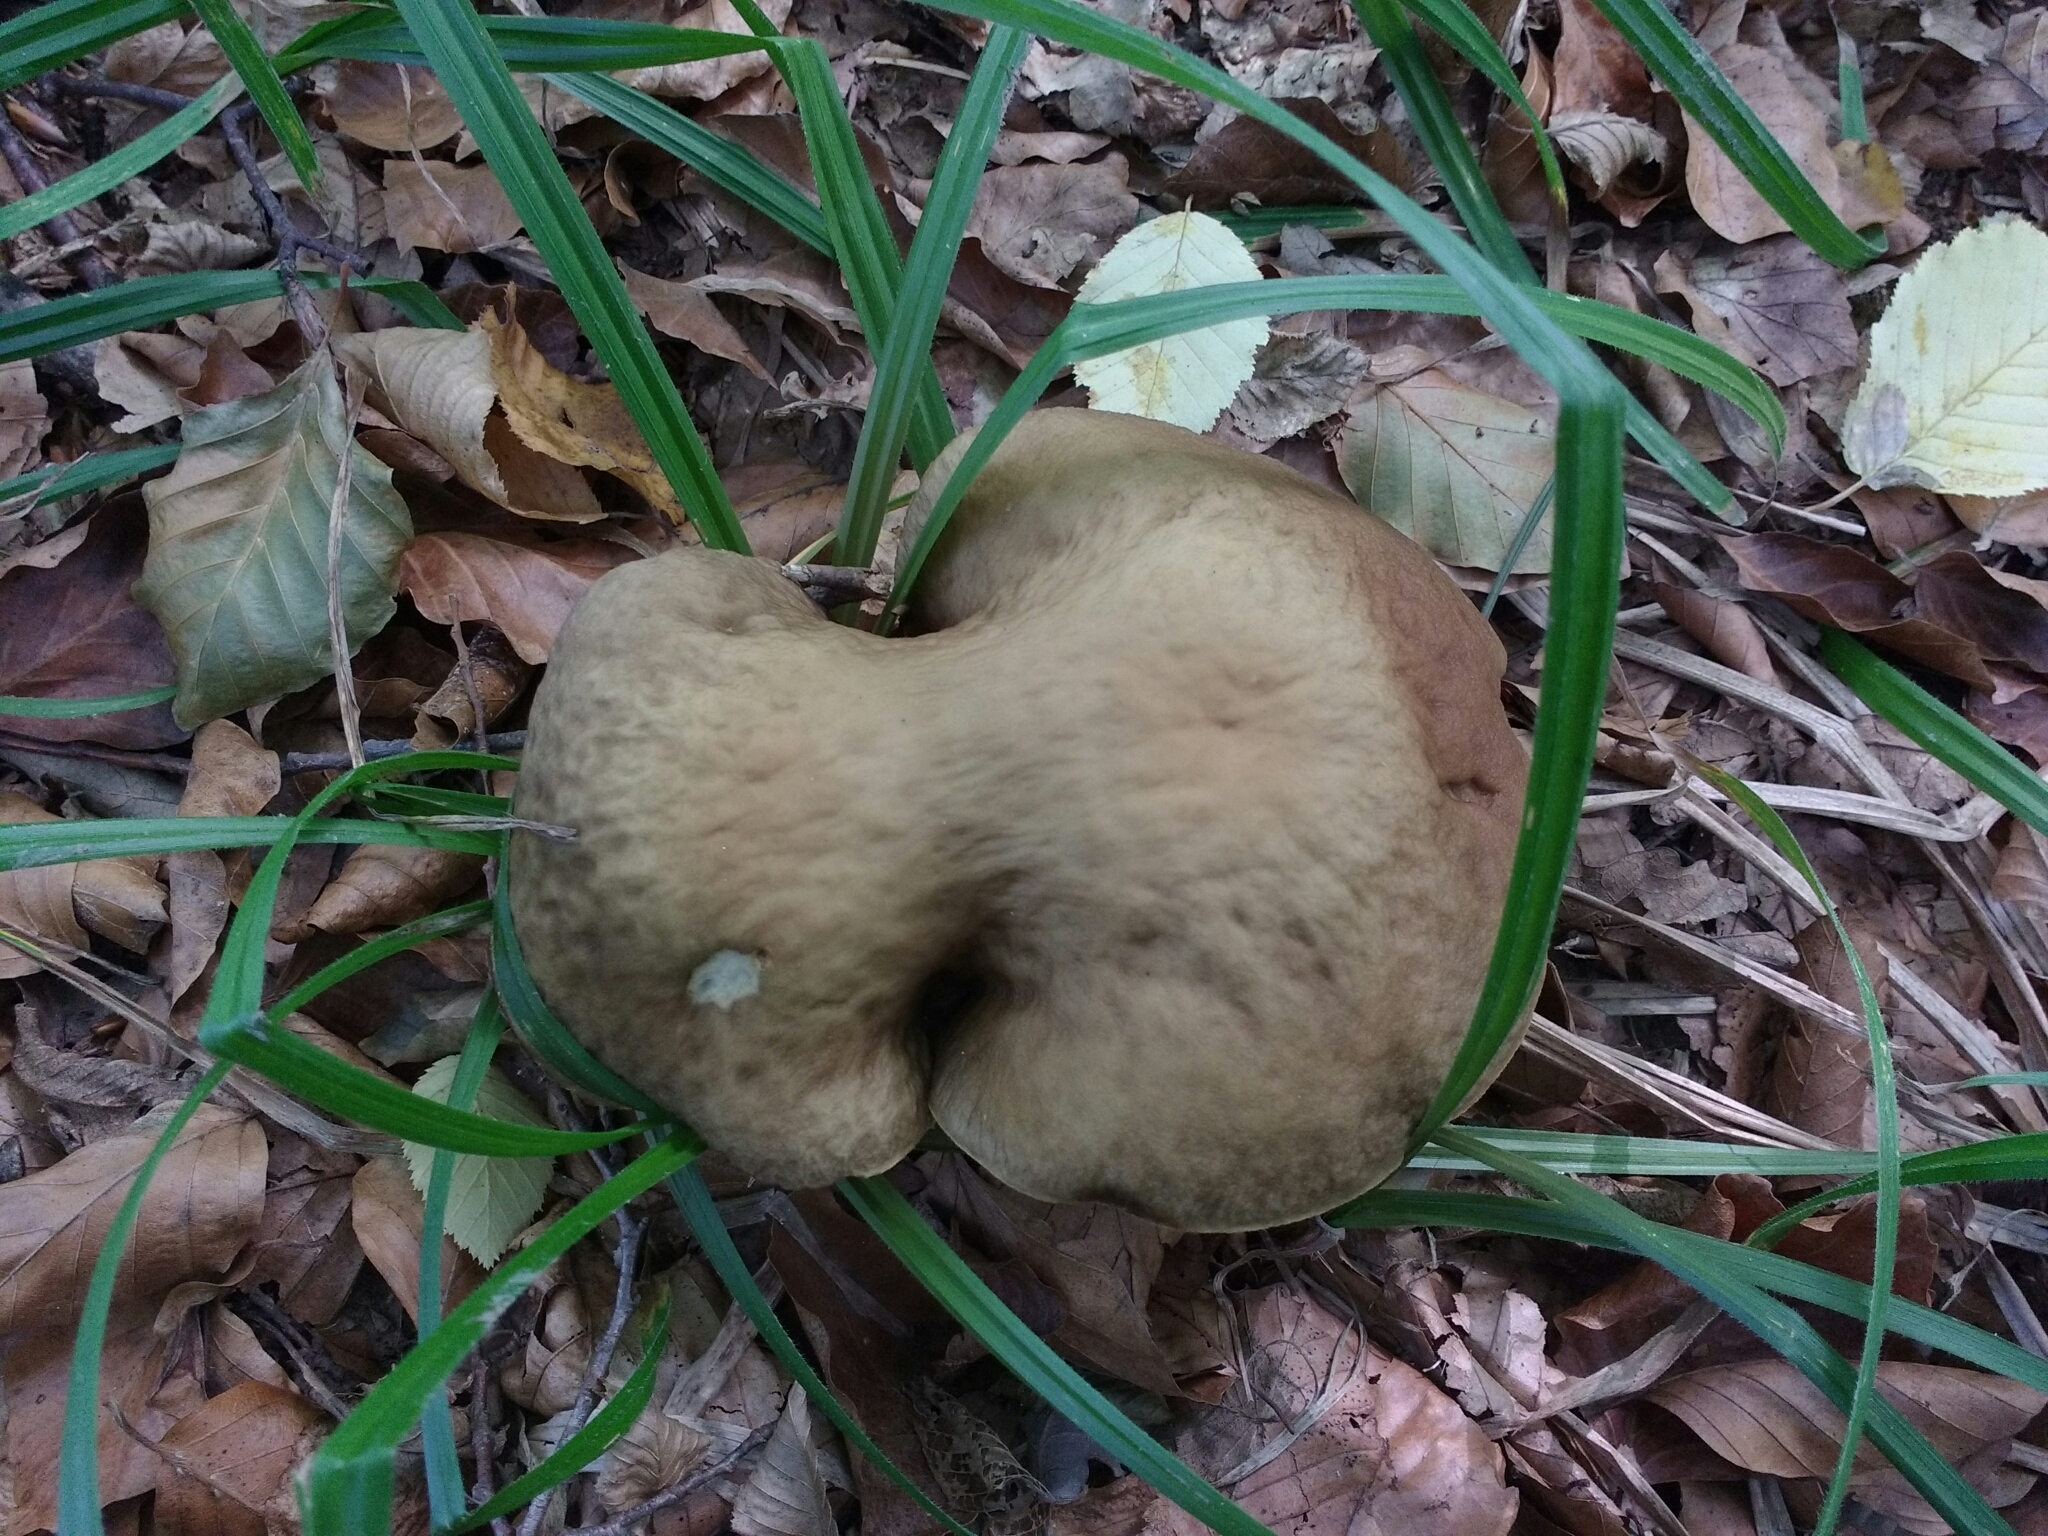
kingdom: Fungi
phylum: Basidiomycota
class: Agaricomycetes
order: Boletales
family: Boletaceae
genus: Leccinellum
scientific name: Leccinellum pseudoscabrum
